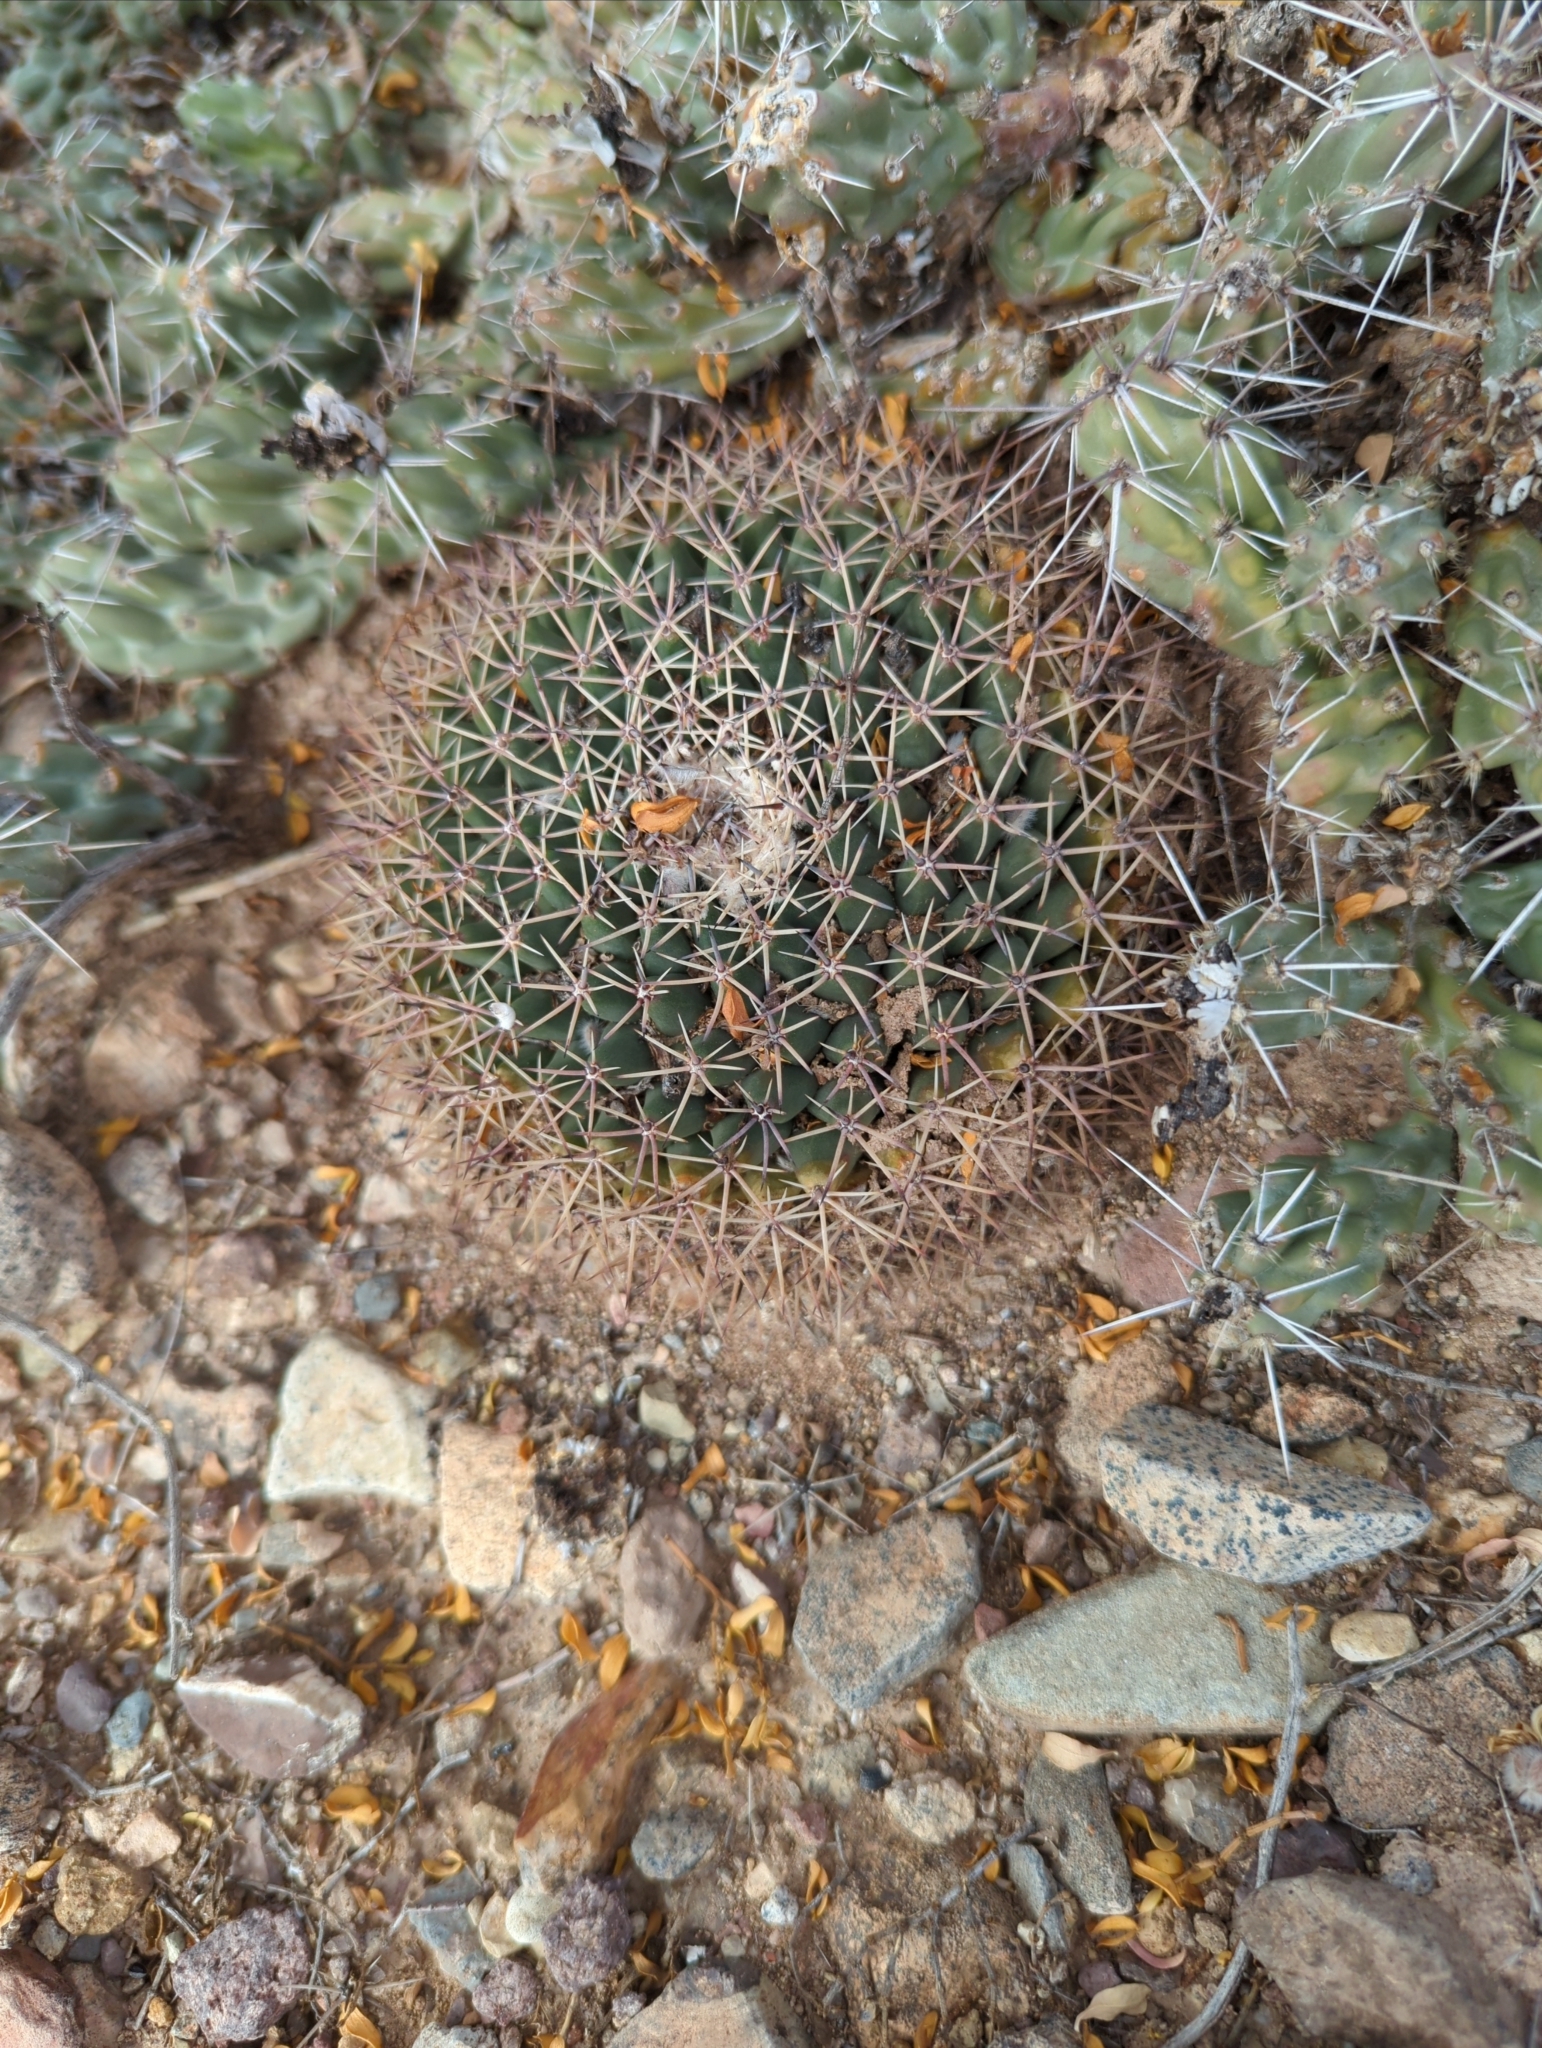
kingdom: Plantae
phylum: Tracheophyta
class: Magnoliopsida
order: Caryophyllales
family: Cactaceae
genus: Mammillaria
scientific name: Mammillaria heyderi
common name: Little nipple cactus
